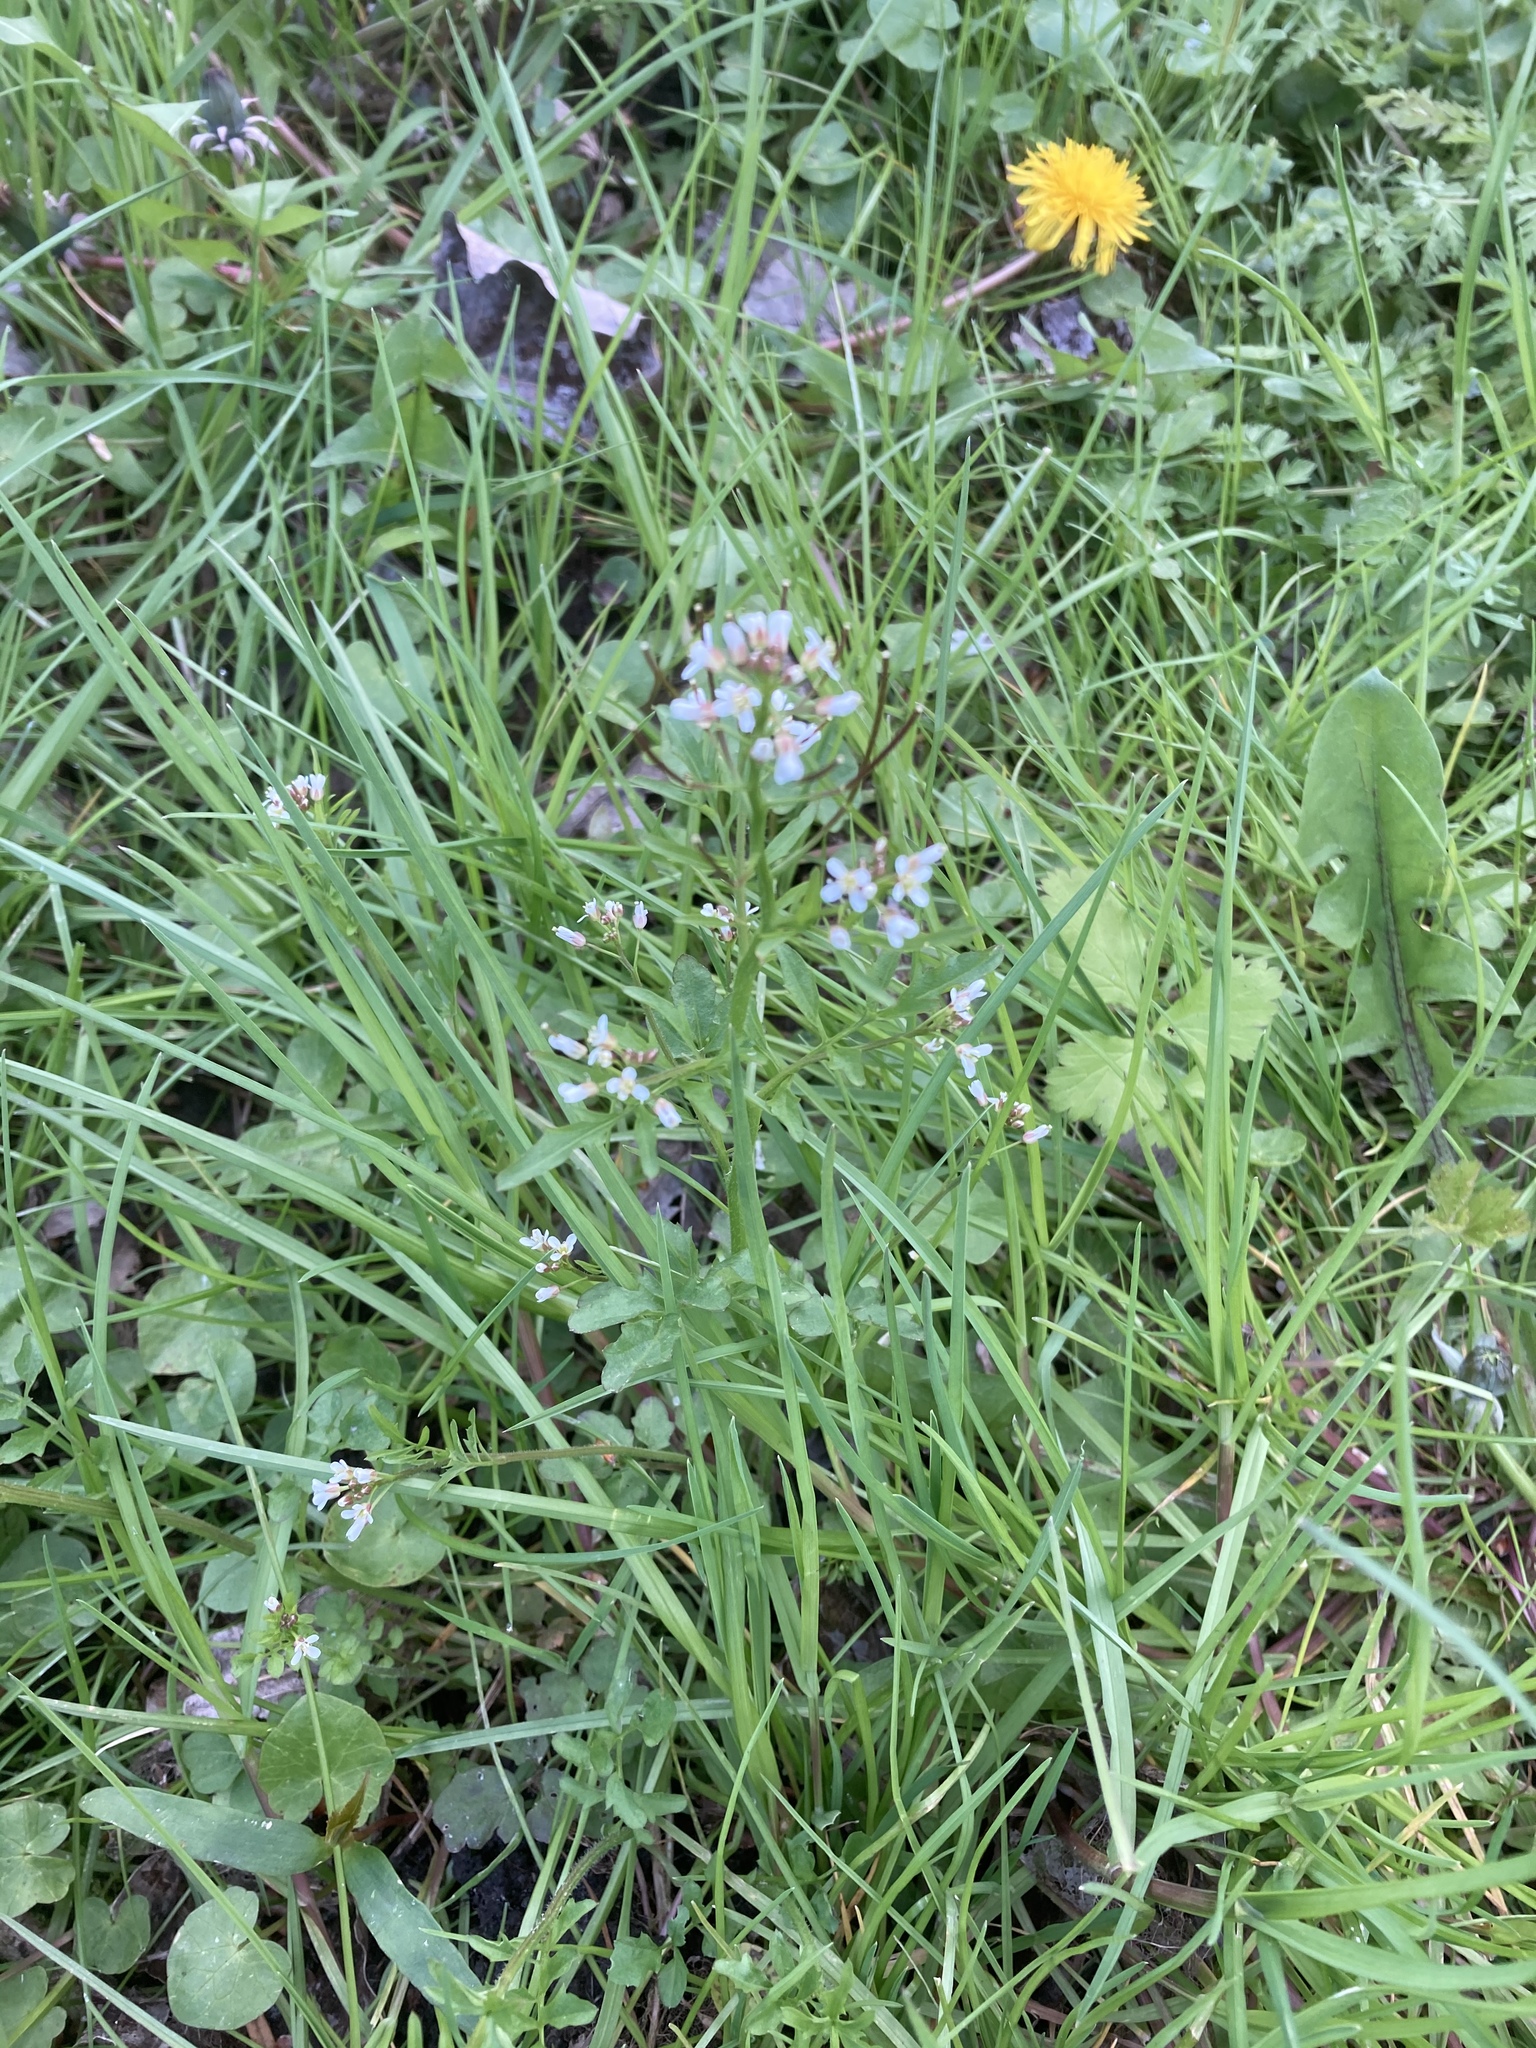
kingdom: Plantae
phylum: Tracheophyta
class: Magnoliopsida
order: Brassicales
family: Brassicaceae
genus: Cardamine
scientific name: Cardamine flexuosa
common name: Woodland bittercress
